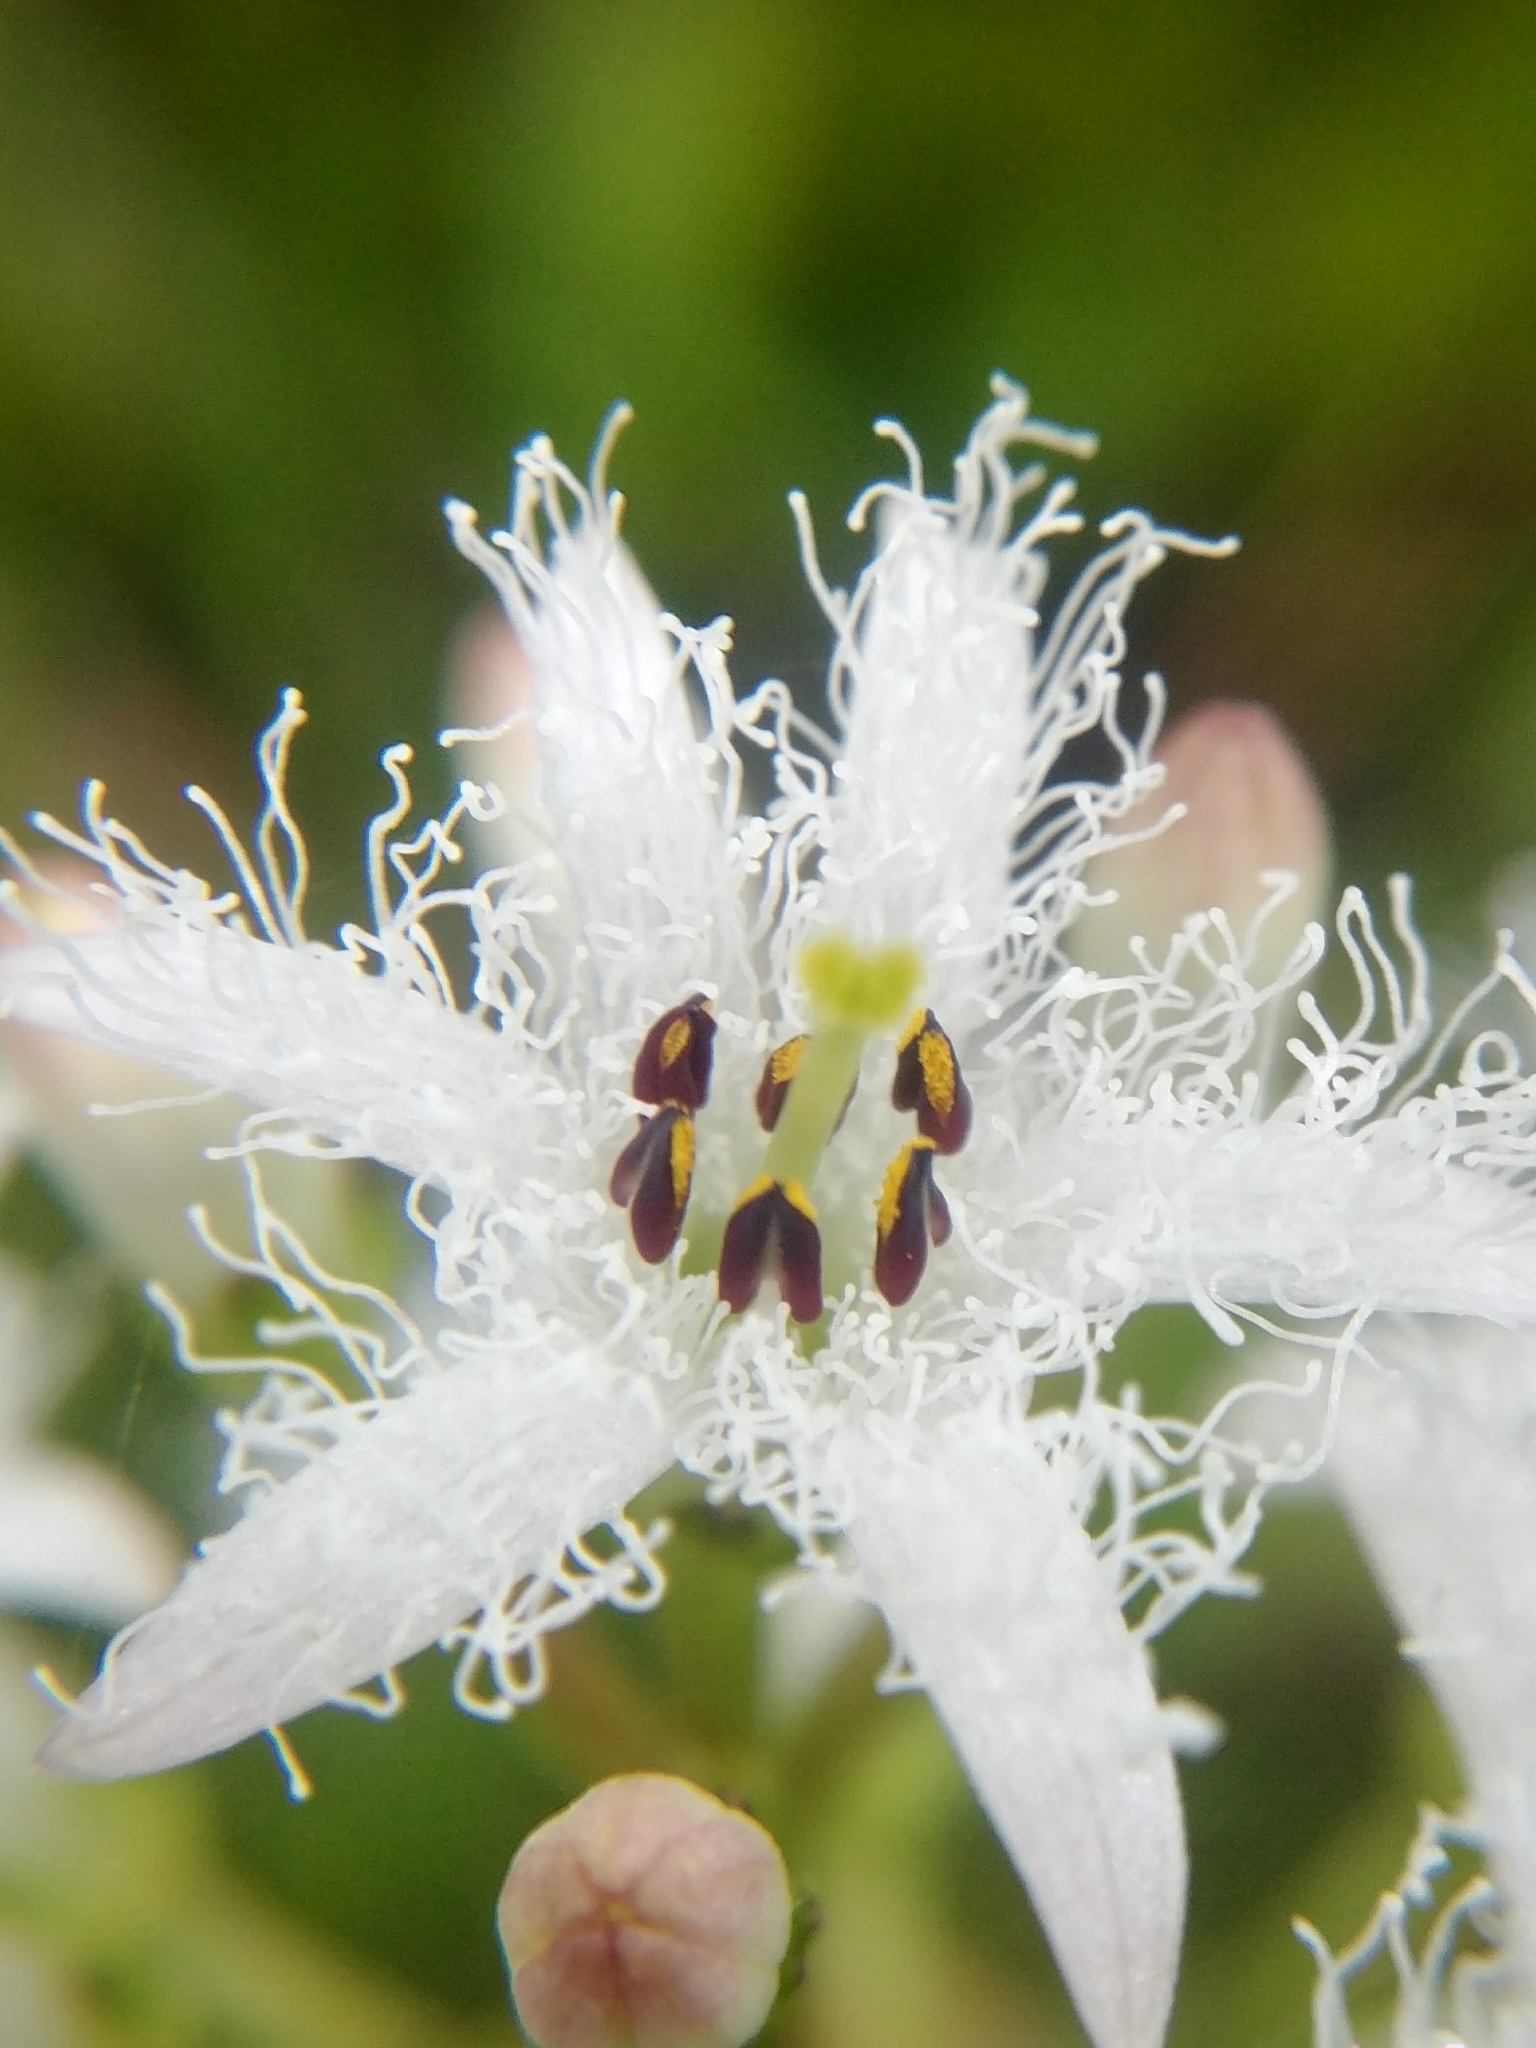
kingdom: Plantae
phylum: Tracheophyta
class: Magnoliopsida
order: Asterales
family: Menyanthaceae
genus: Menyanthes
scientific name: Menyanthes trifoliata
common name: Bogbean
